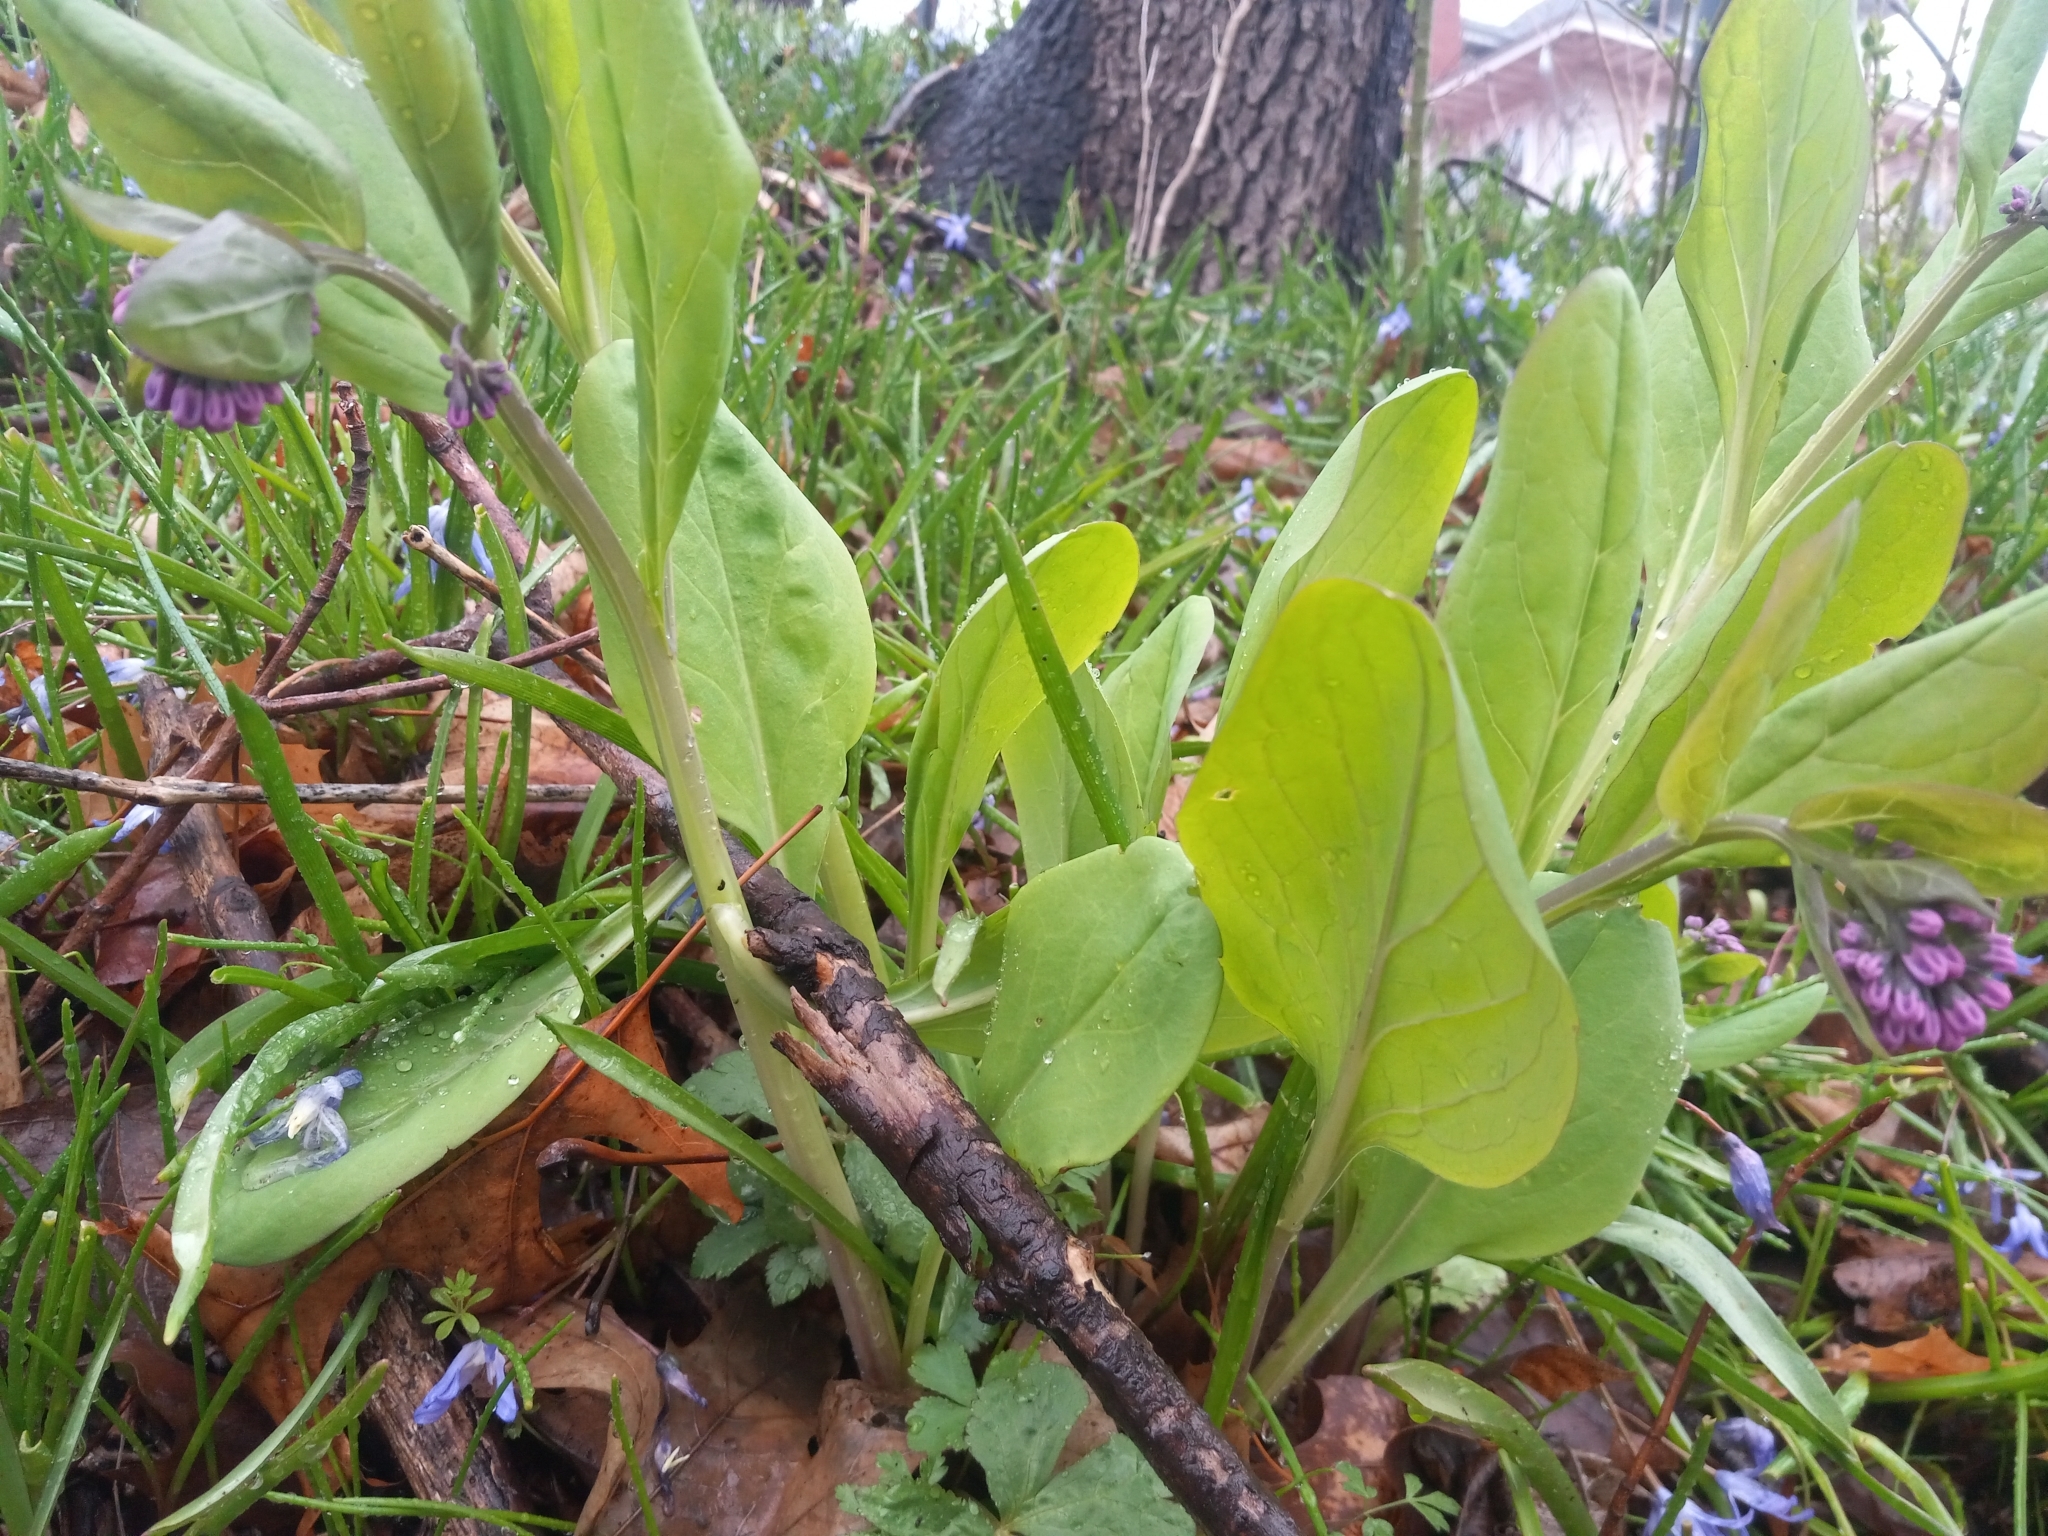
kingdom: Plantae
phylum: Tracheophyta
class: Magnoliopsida
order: Boraginales
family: Boraginaceae
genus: Mertensia
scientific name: Mertensia virginica
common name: Virginia bluebells
